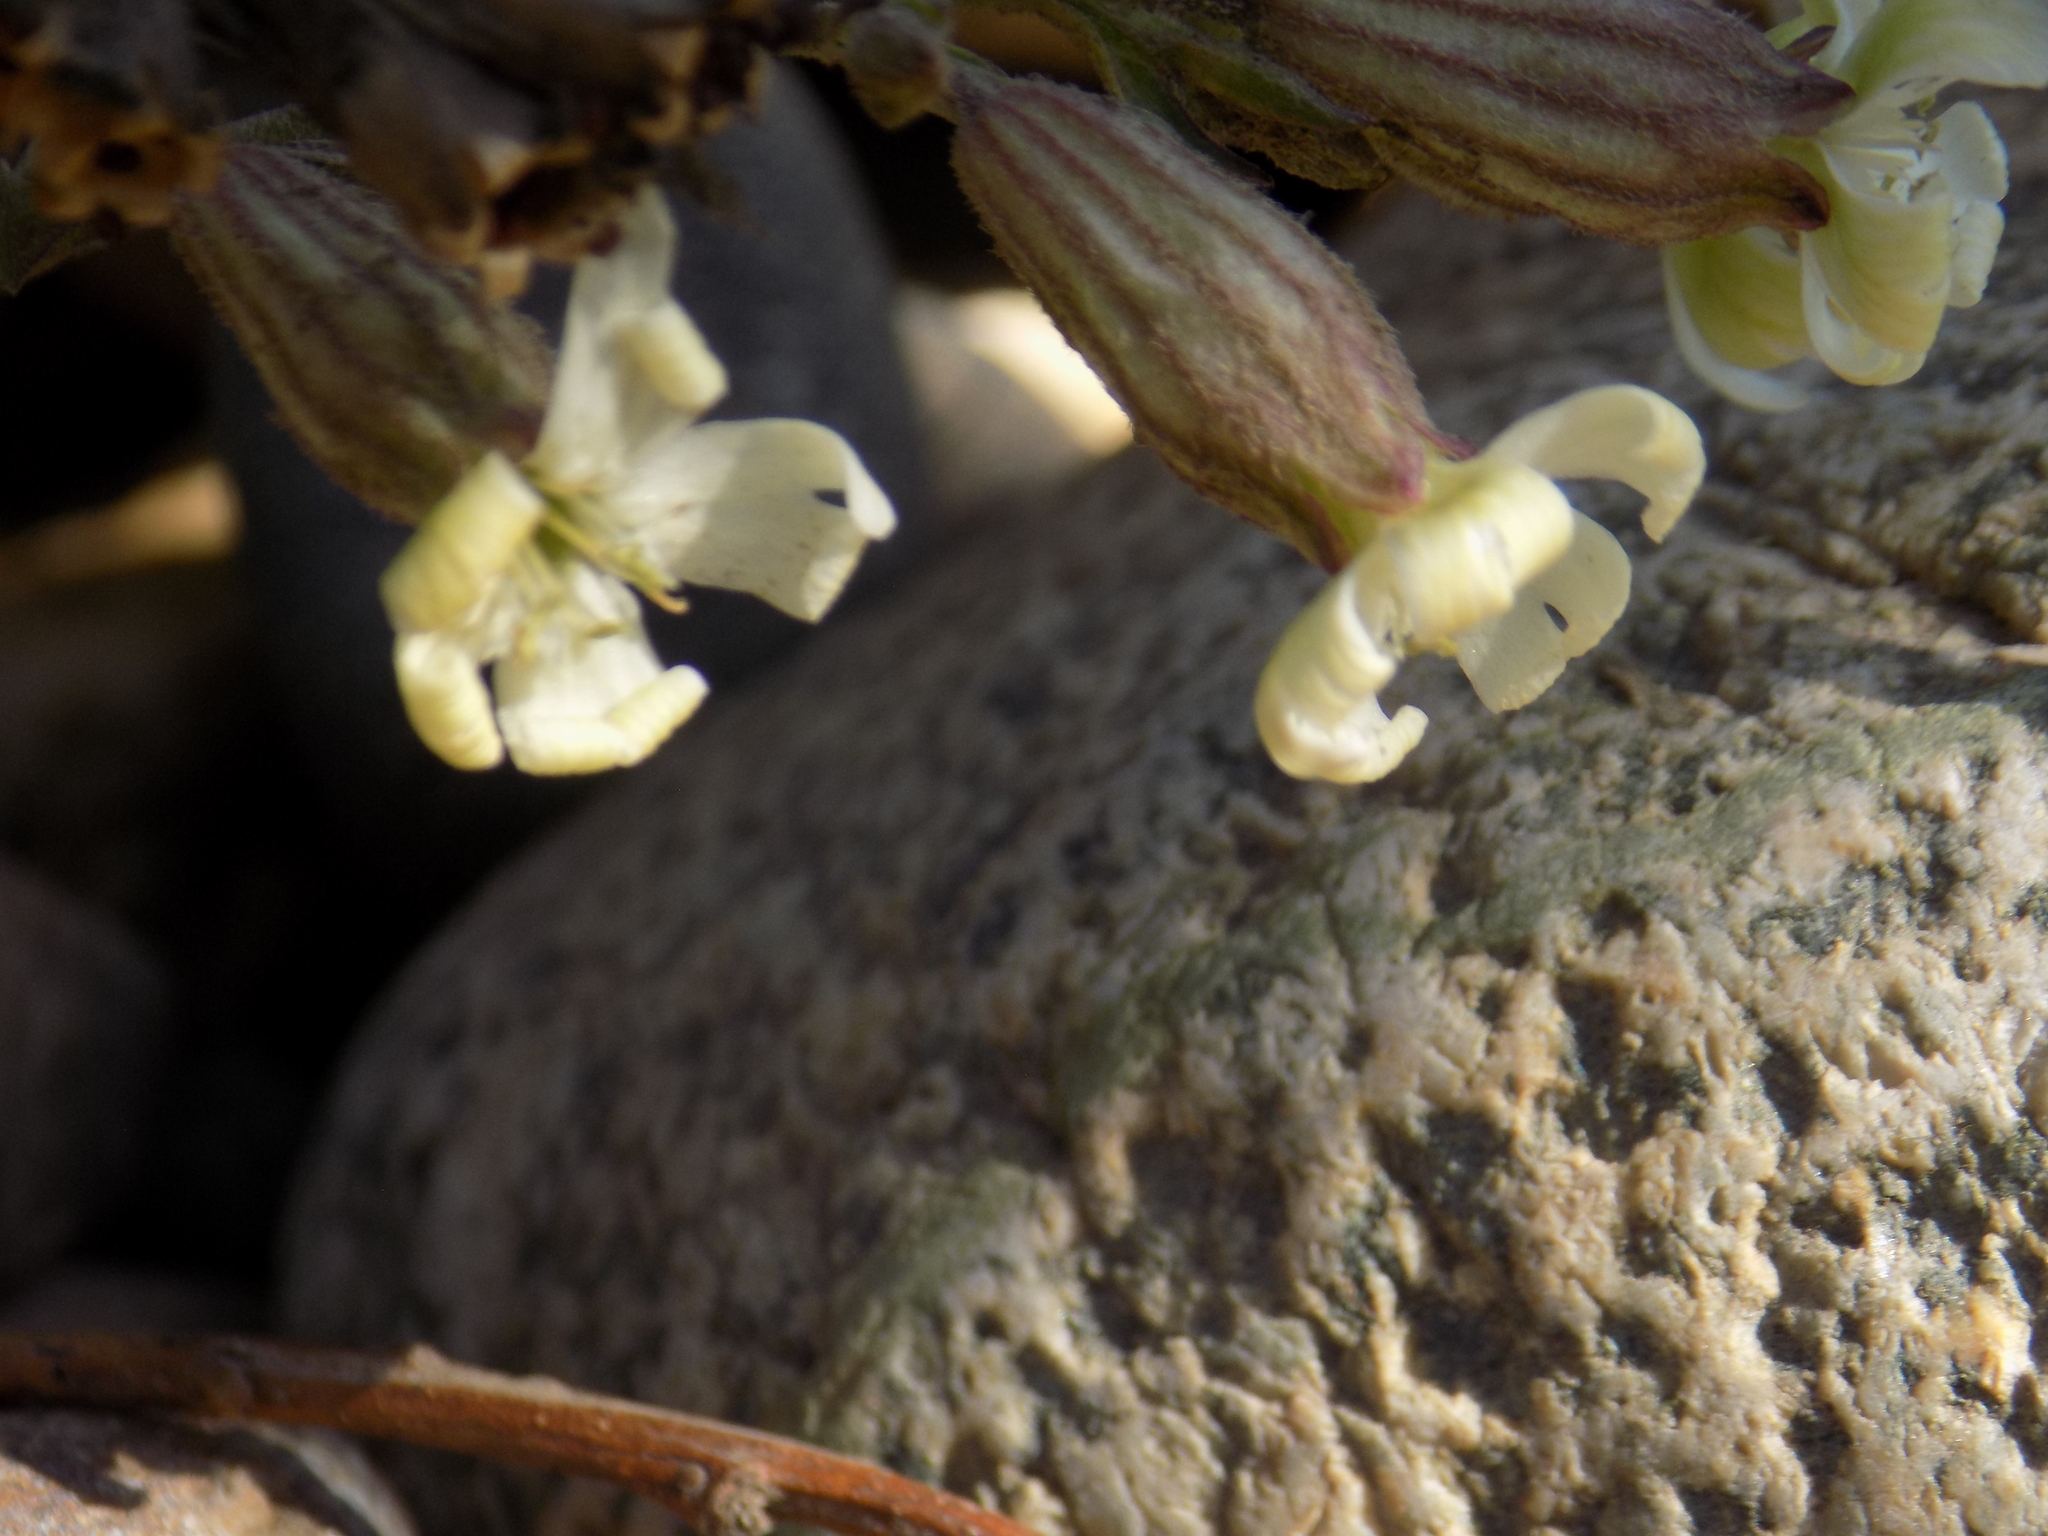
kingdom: Plantae
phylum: Tracheophyta
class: Magnoliopsida
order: Caryophyllales
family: Caryophyllaceae
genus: Silene
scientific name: Silene amoena
